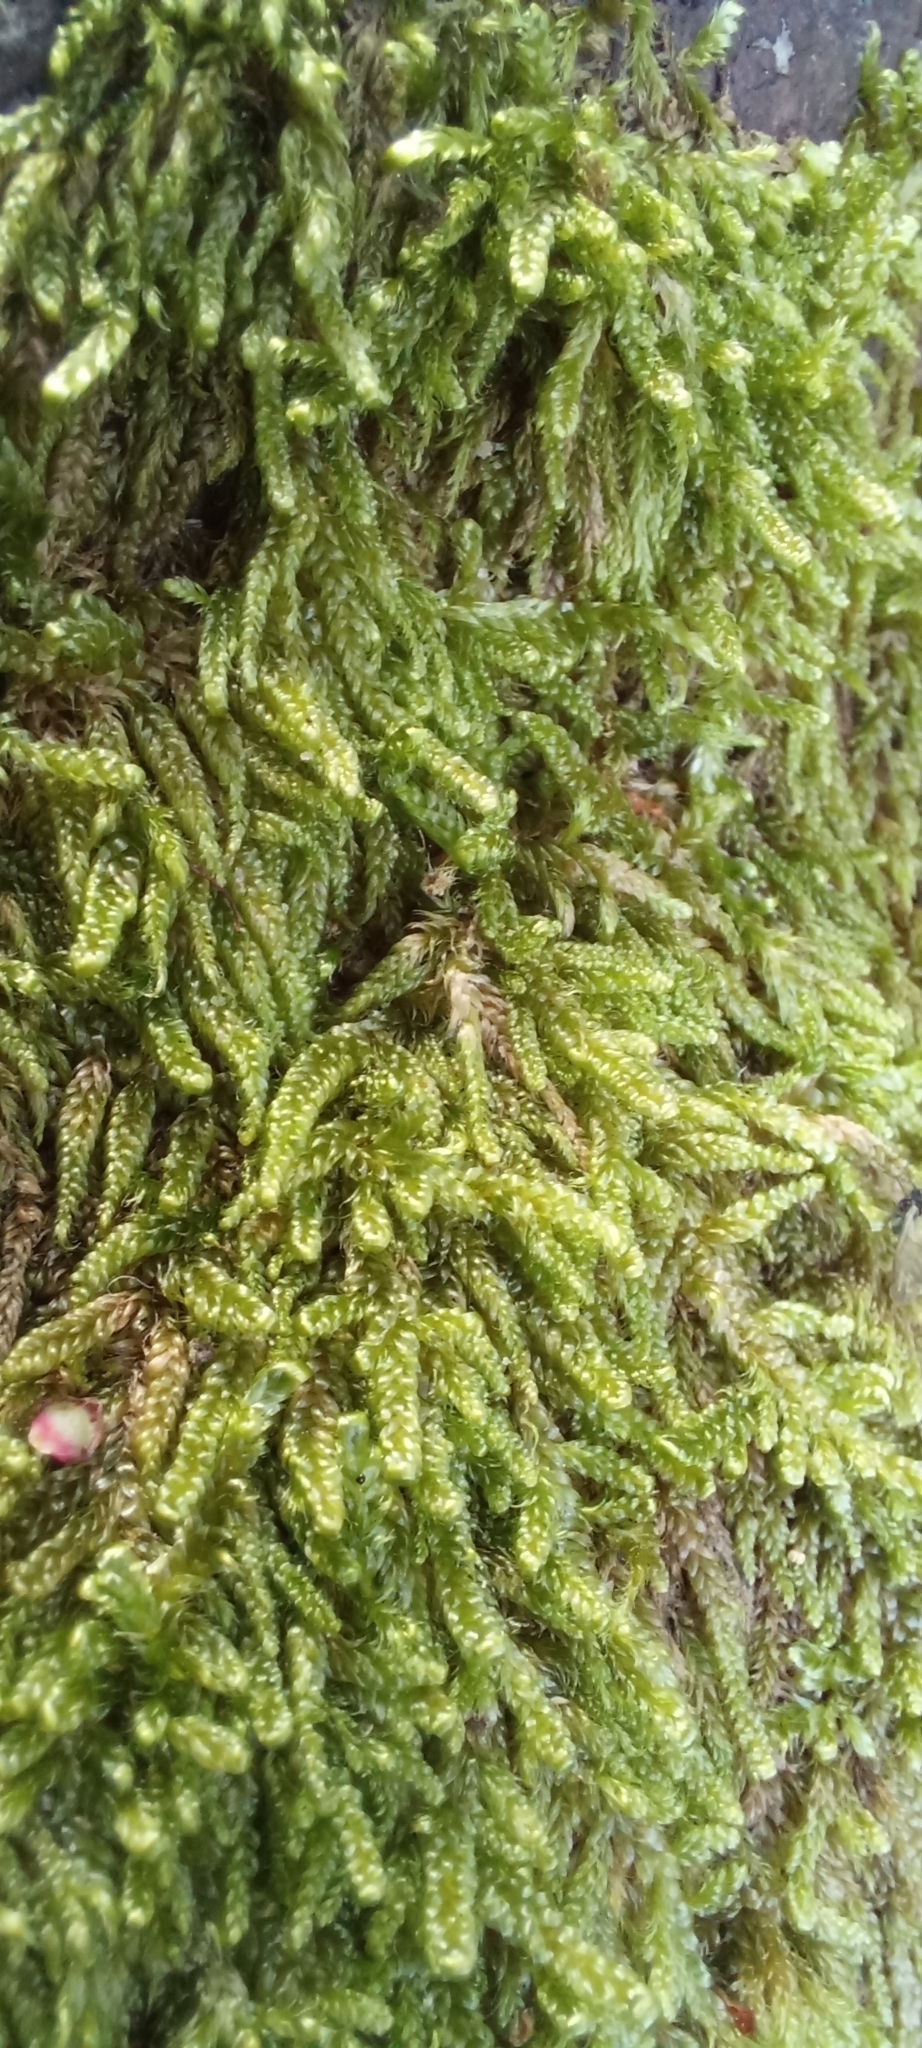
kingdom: Plantae
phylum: Bryophyta
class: Bryopsida
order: Hypnales
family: Hypnaceae
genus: Hypnum
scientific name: Hypnum cupressiforme
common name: Cypress-leaved plait-moss
